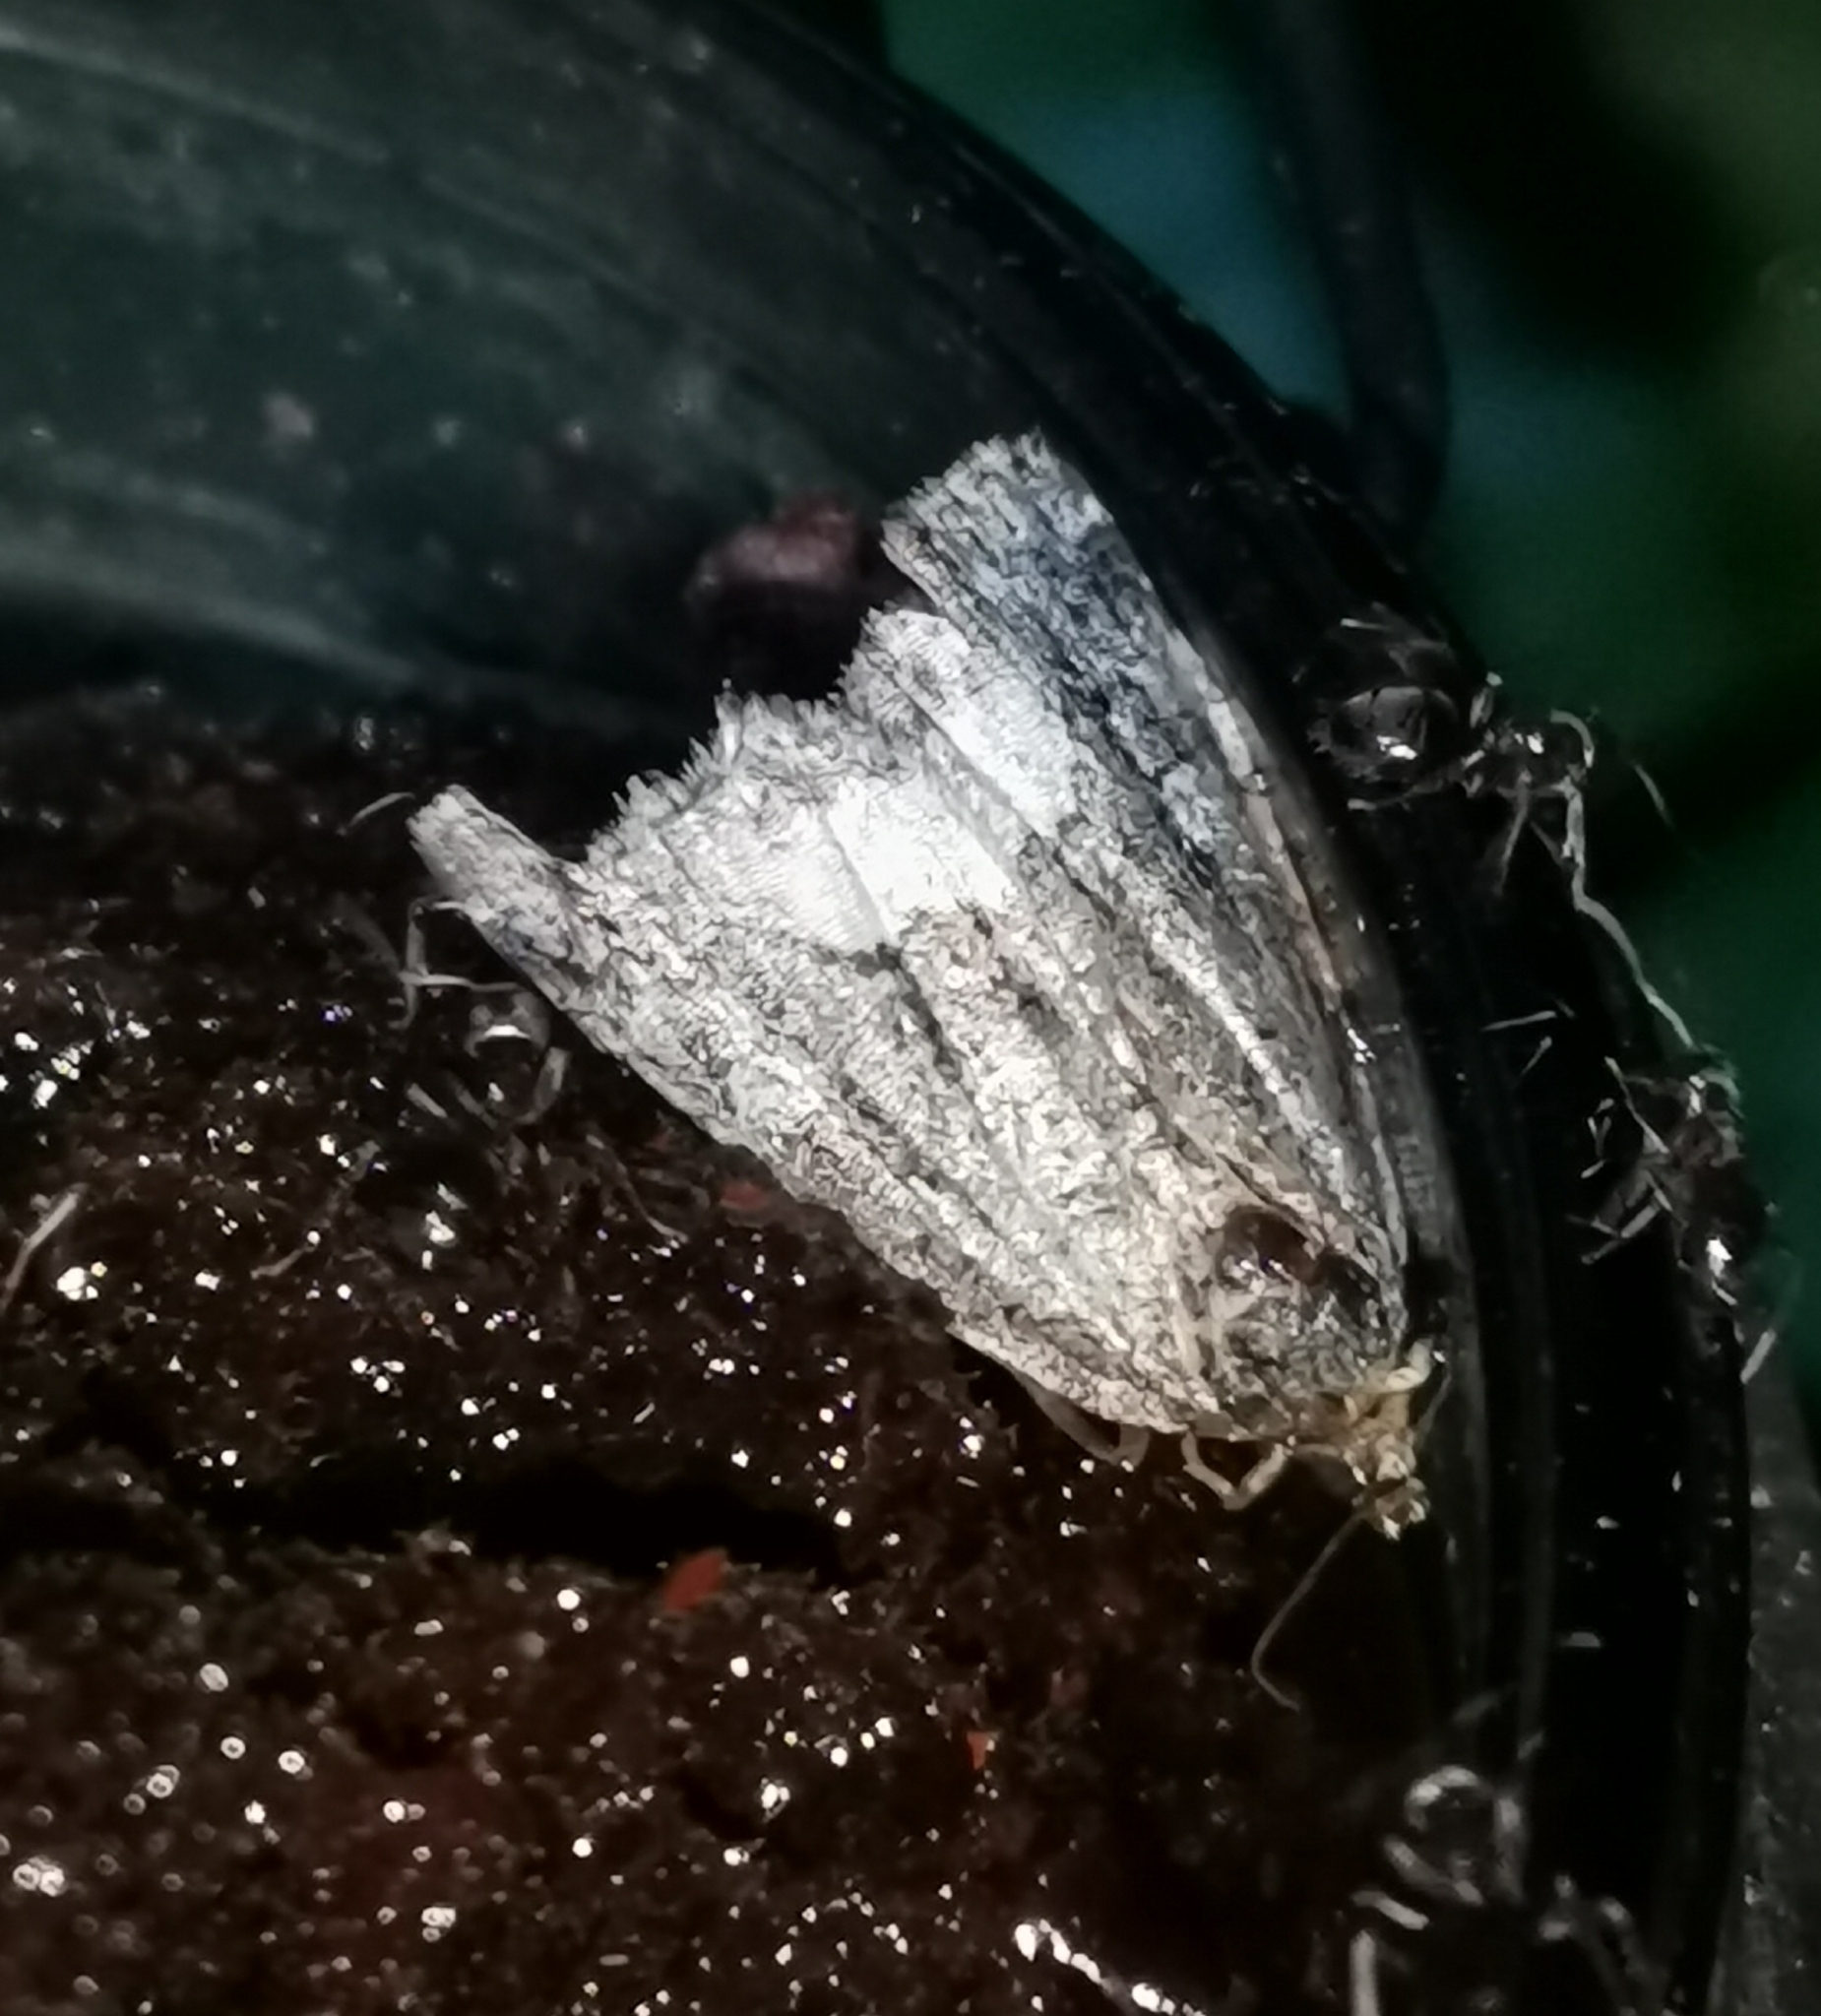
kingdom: Animalia
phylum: Arthropoda
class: Insecta
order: Lepidoptera
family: Noctuidae
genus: Deltote
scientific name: Deltote pygarga
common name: Marbled white spot
